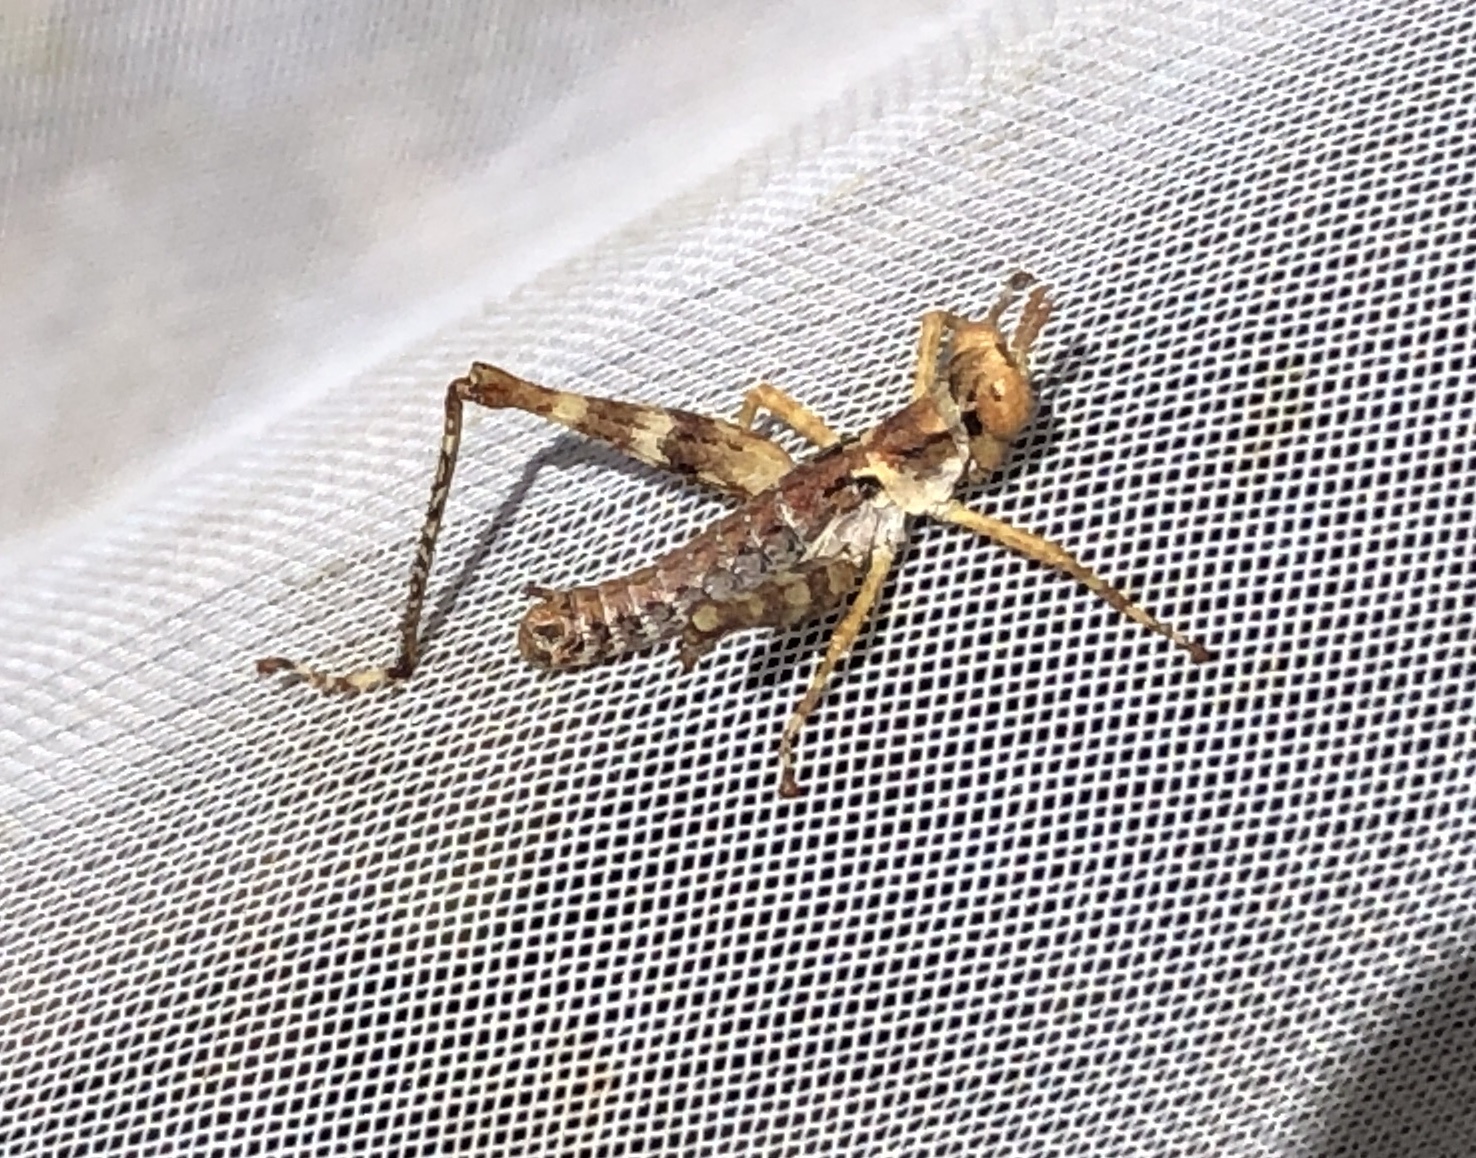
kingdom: Animalia
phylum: Arthropoda
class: Insecta
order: Orthoptera
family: Eumastacidae
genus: Morsea
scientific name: Morsea californica
